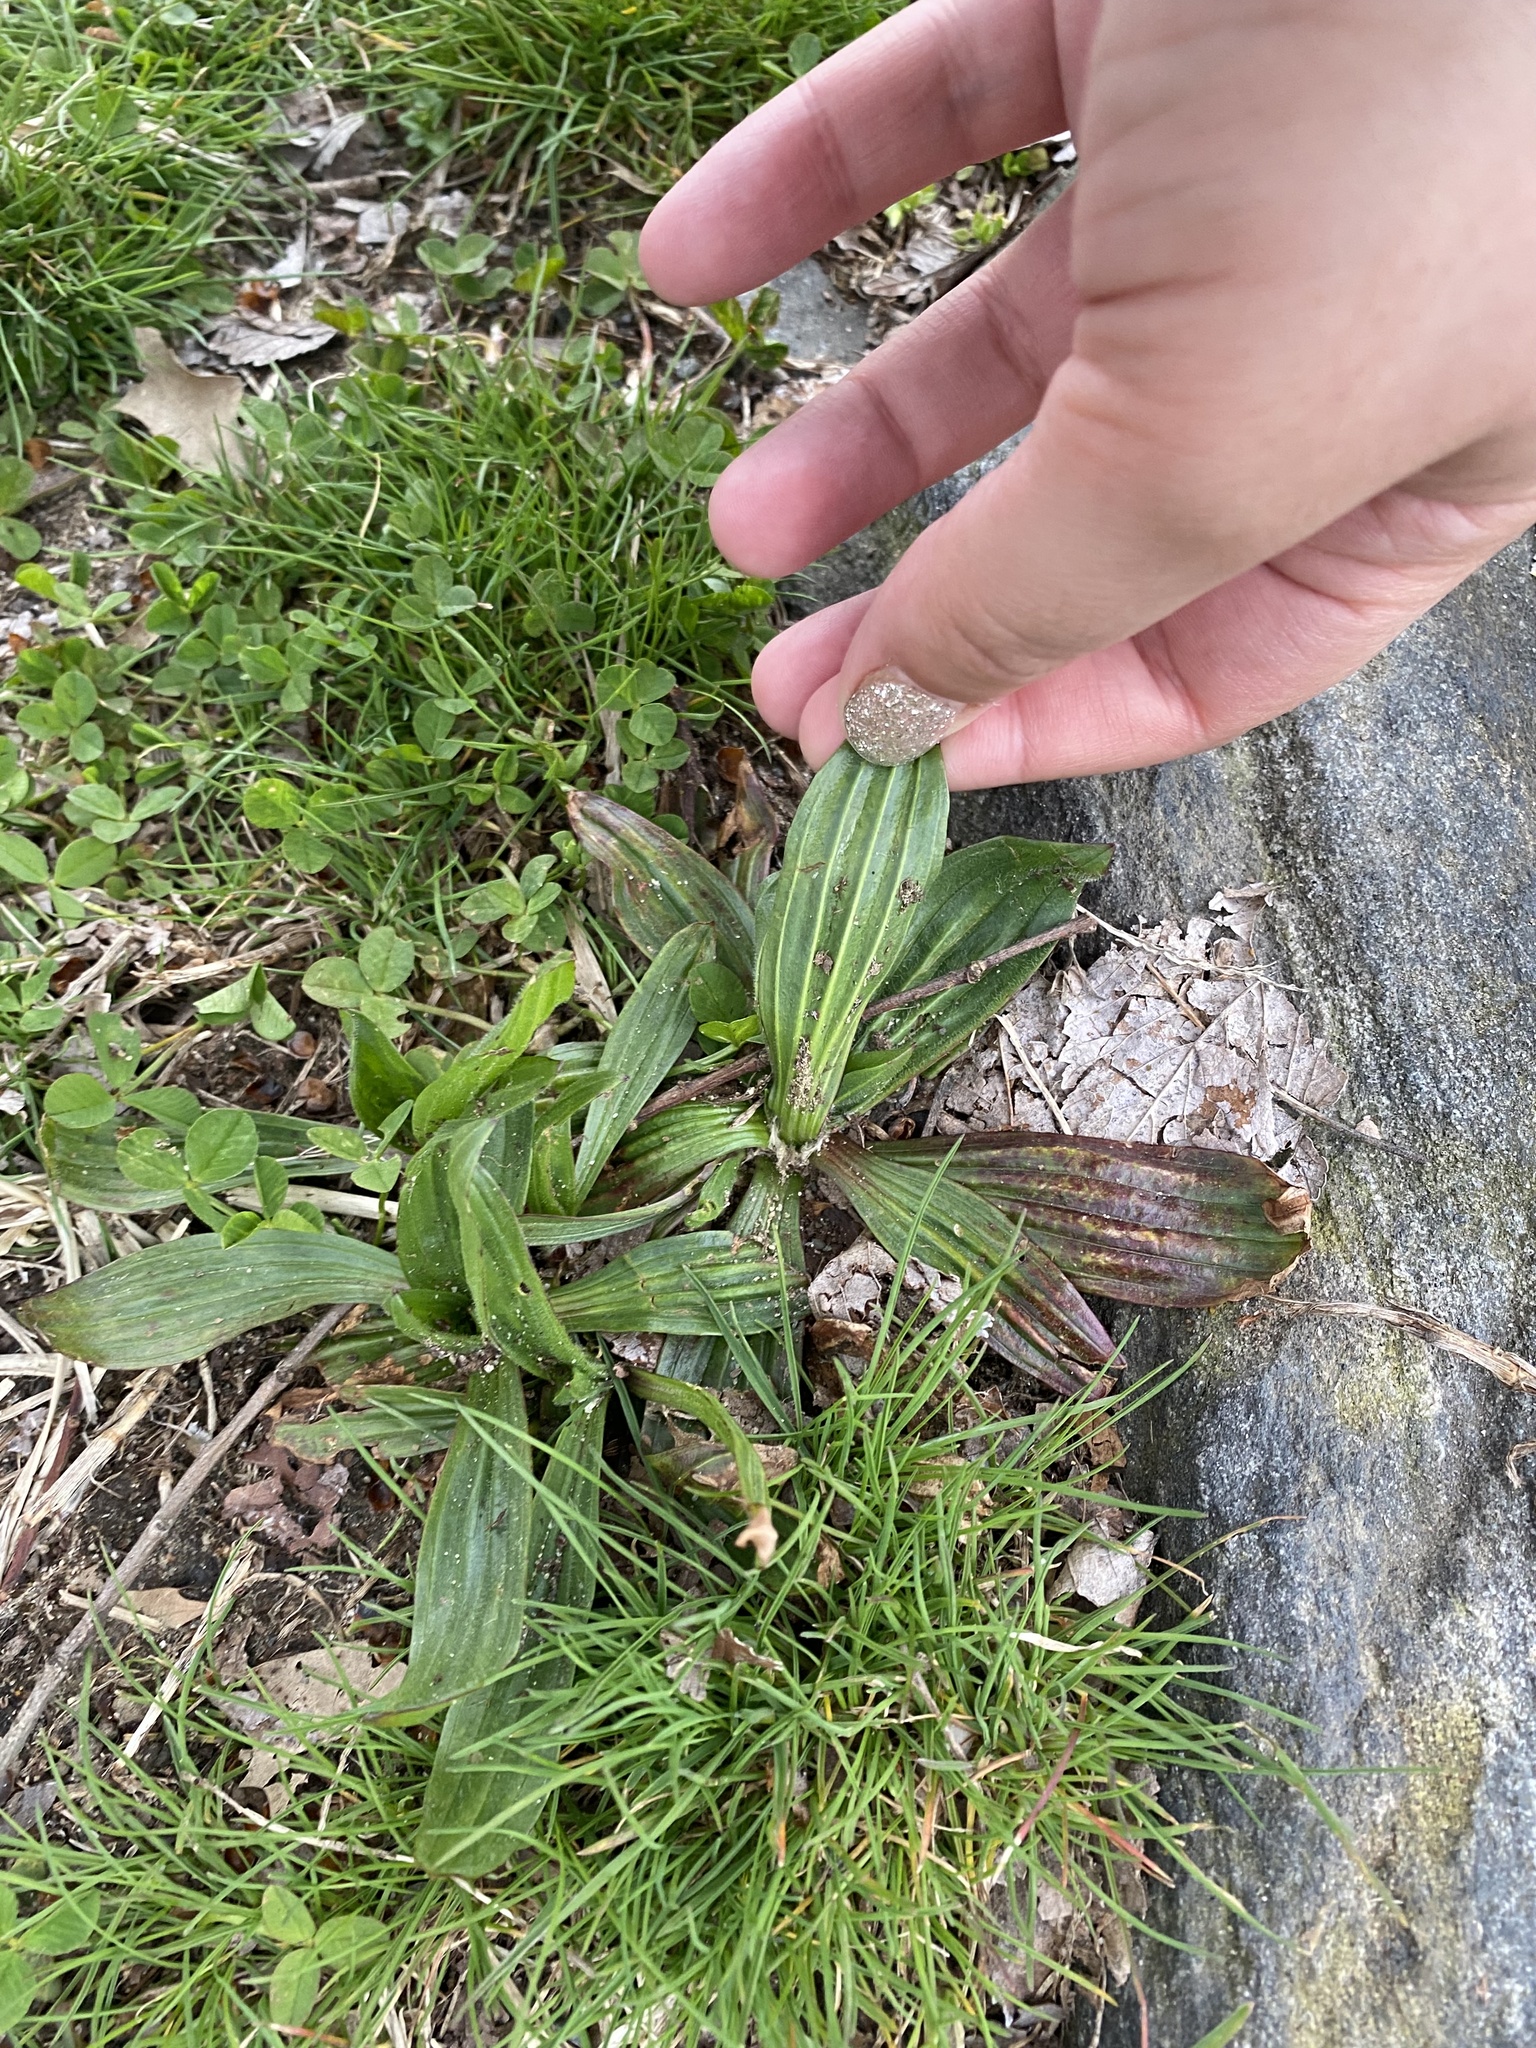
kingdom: Plantae
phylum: Tracheophyta
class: Magnoliopsida
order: Lamiales
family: Plantaginaceae
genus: Plantago
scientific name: Plantago lanceolata
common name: Ribwort plantain
